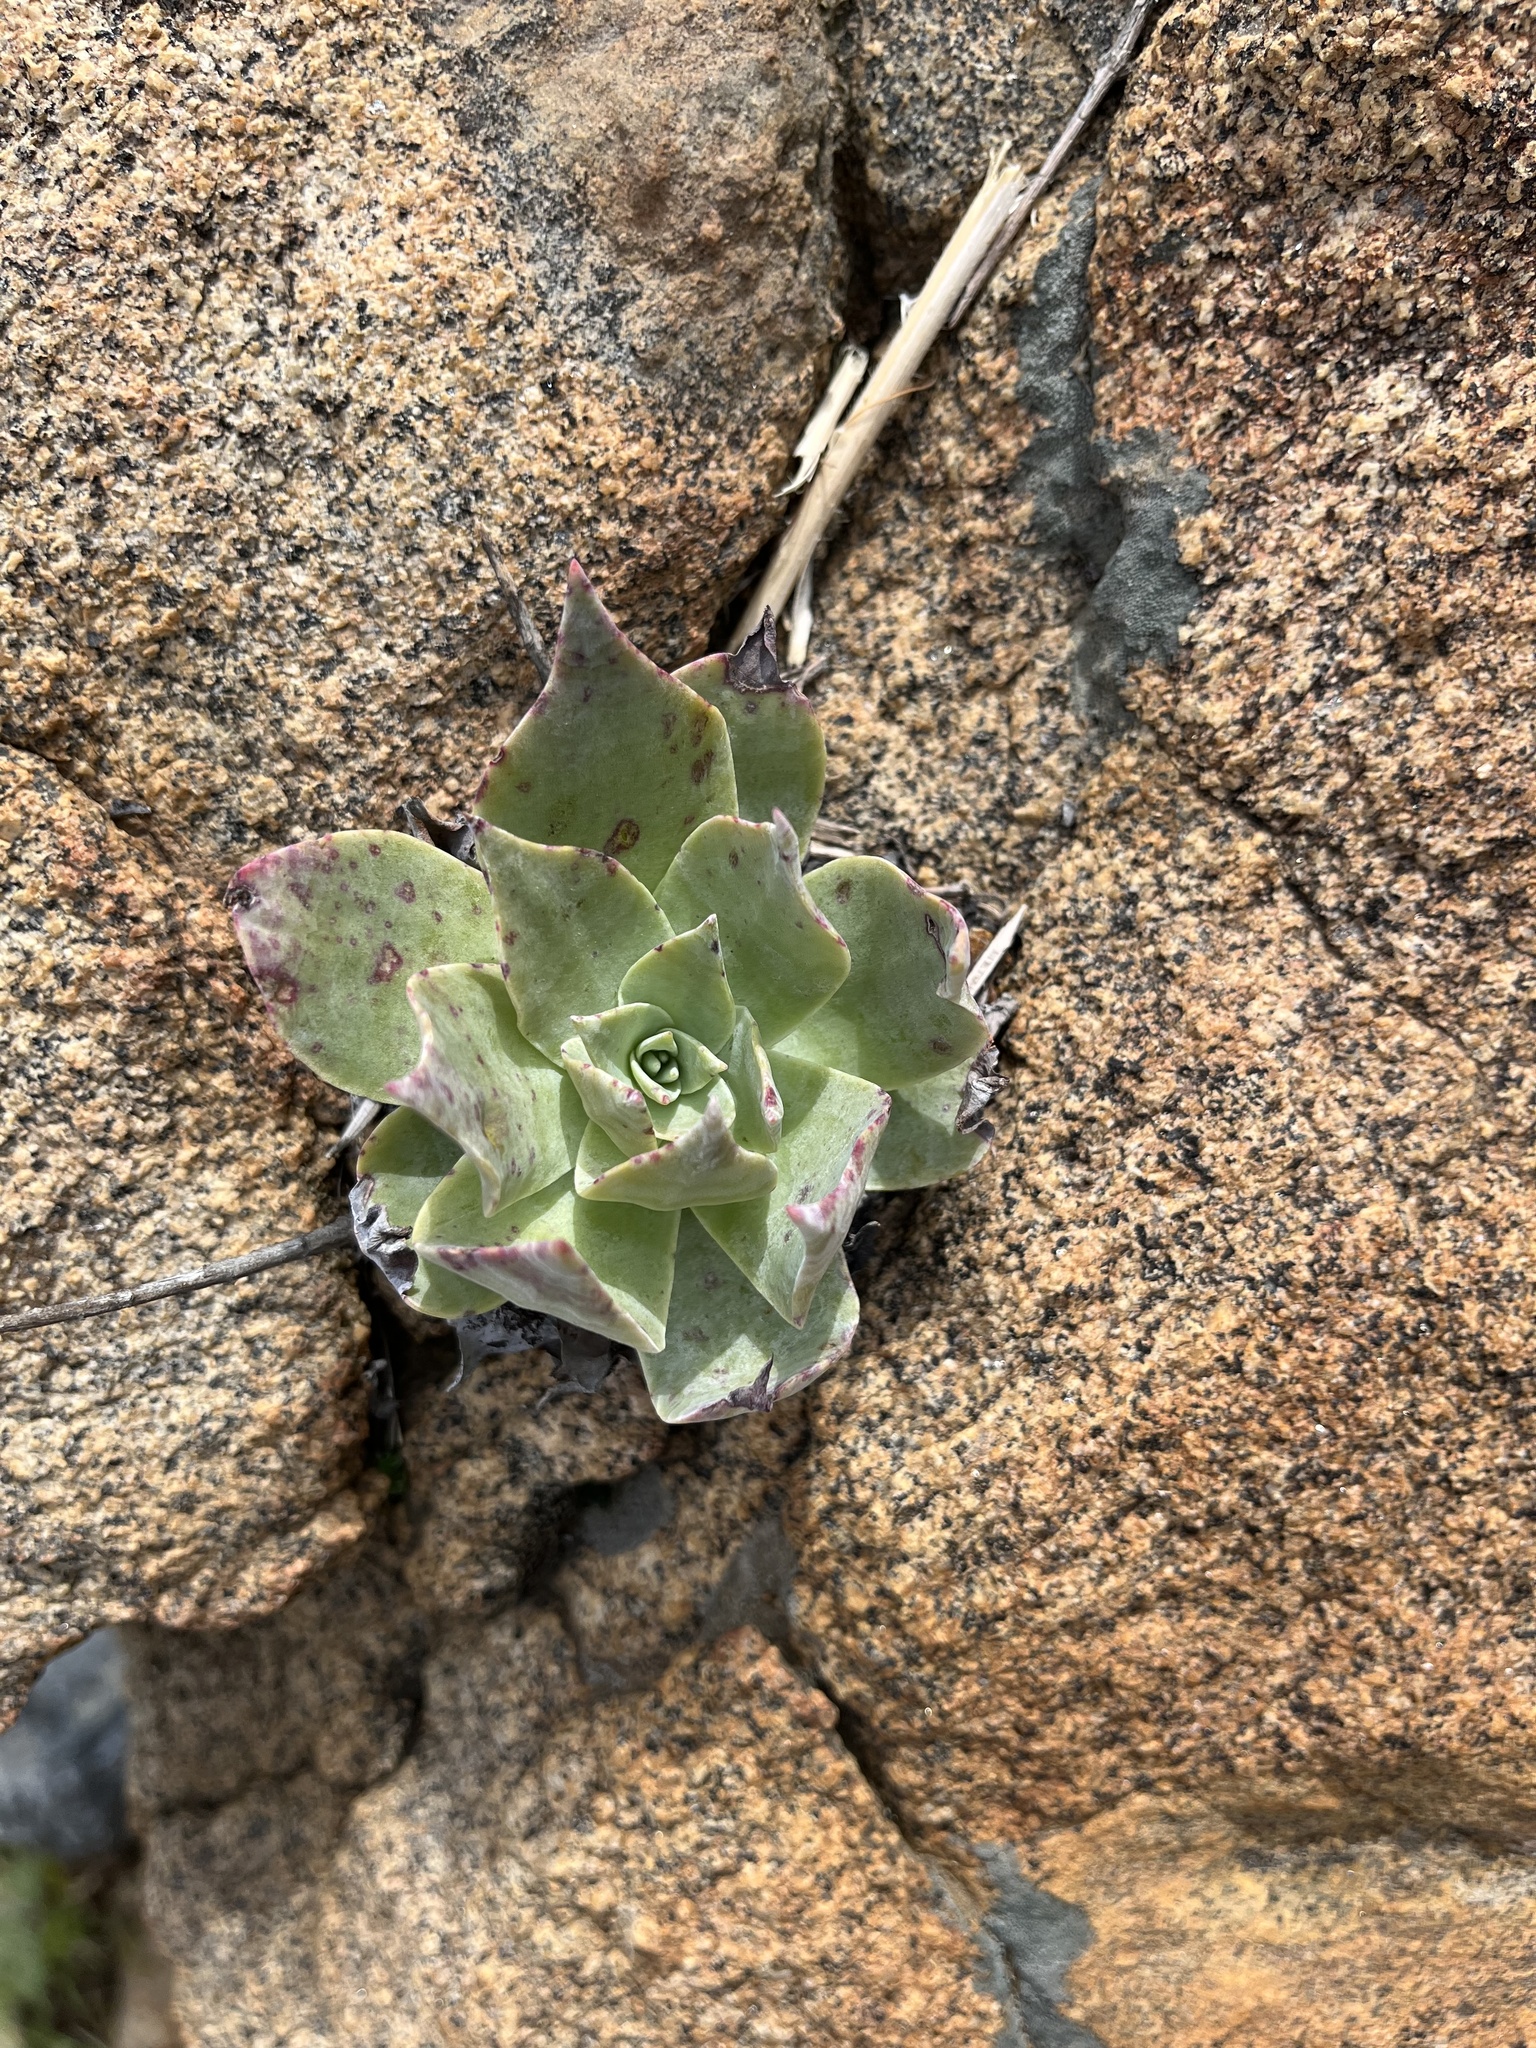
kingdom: Plantae
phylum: Tracheophyta
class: Magnoliopsida
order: Saxifragales
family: Crassulaceae
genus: Dudleya
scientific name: Dudleya pulverulenta
